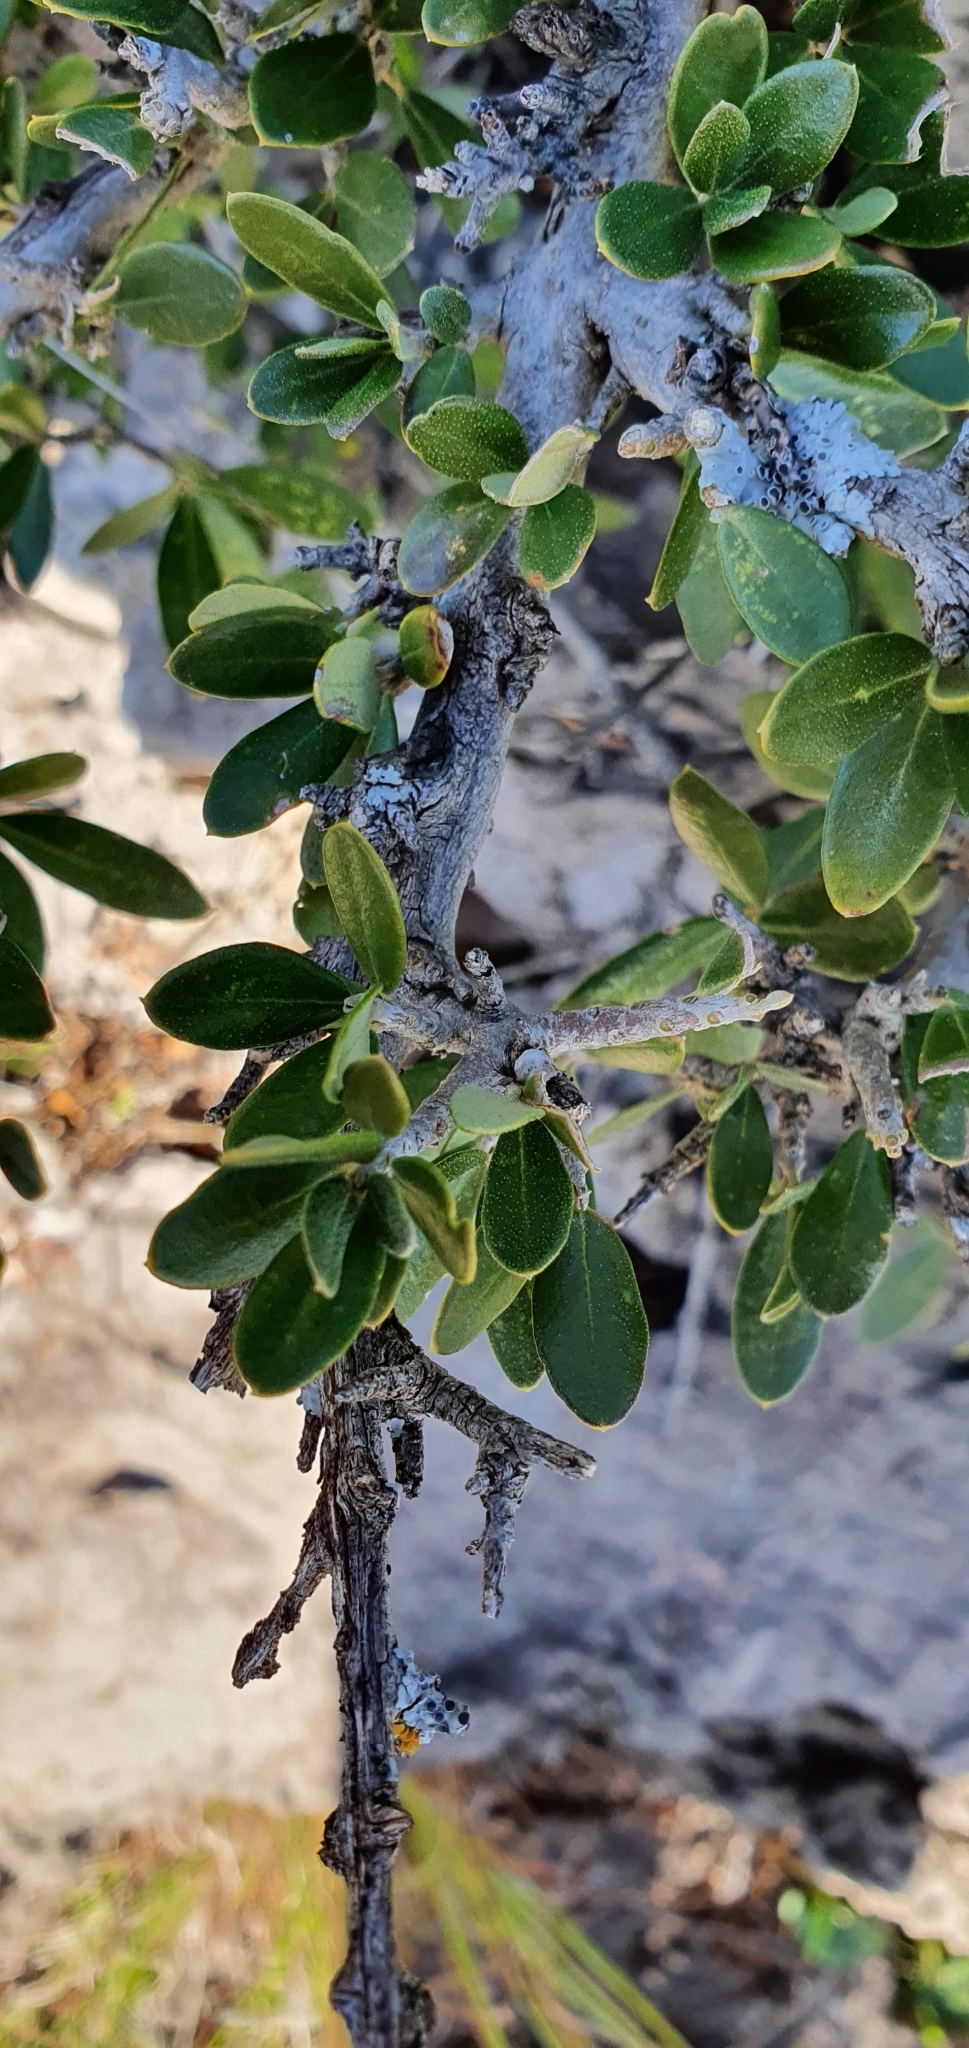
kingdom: Plantae
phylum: Tracheophyta
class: Magnoliopsida
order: Lamiales
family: Oleaceae
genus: Olea
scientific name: Olea europaea
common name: Olive
